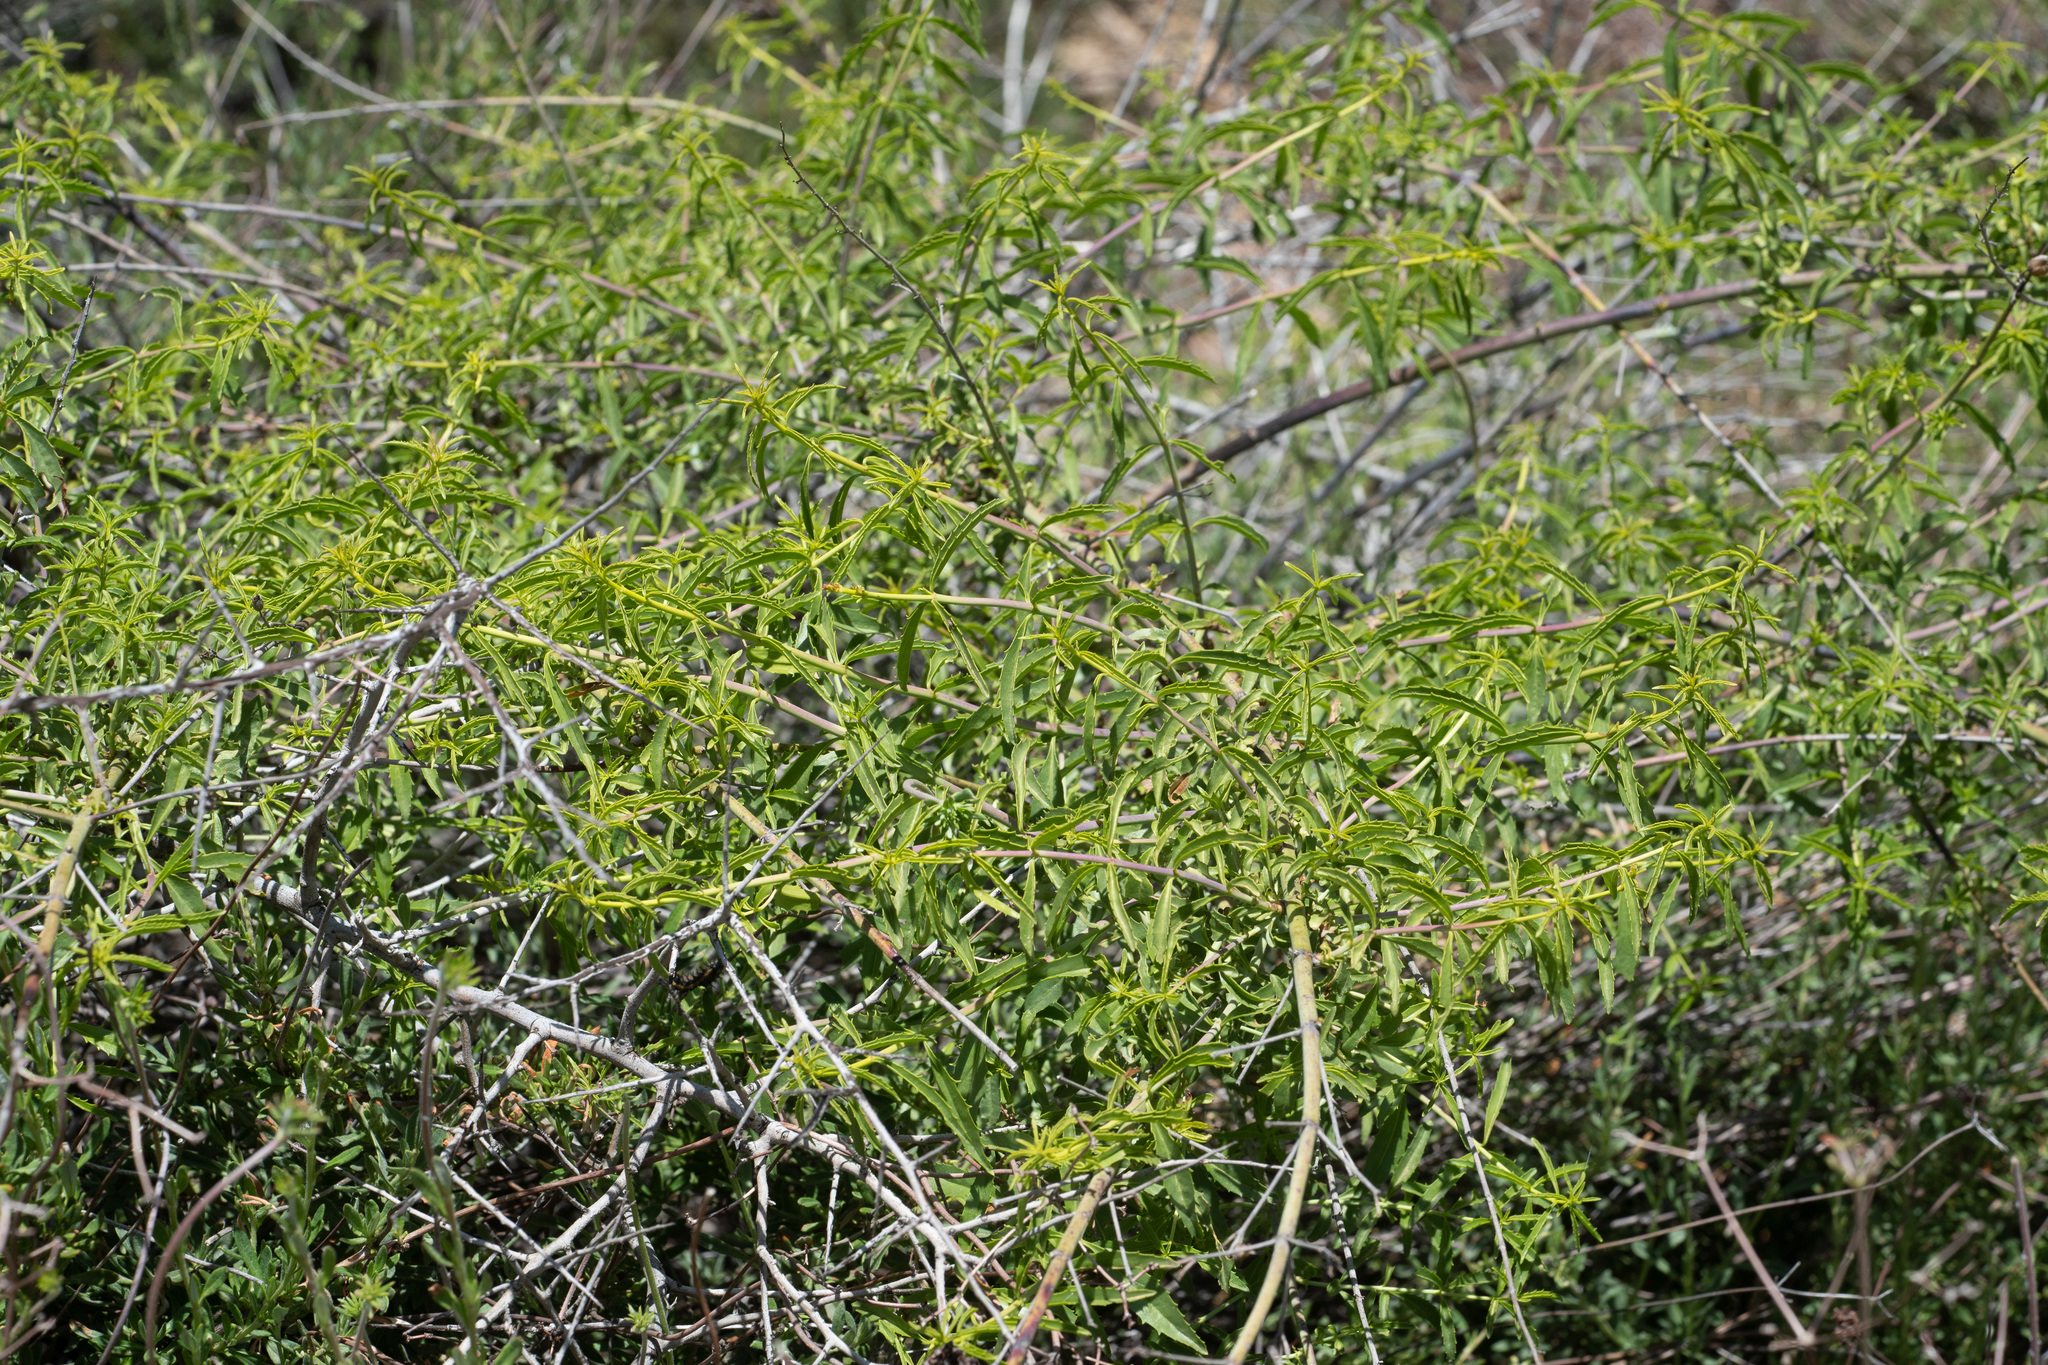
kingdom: Plantae
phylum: Tracheophyta
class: Magnoliopsida
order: Lamiales
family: Plantaginaceae
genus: Keckiella
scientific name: Keckiella ternata
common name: Scarlet keckiella
